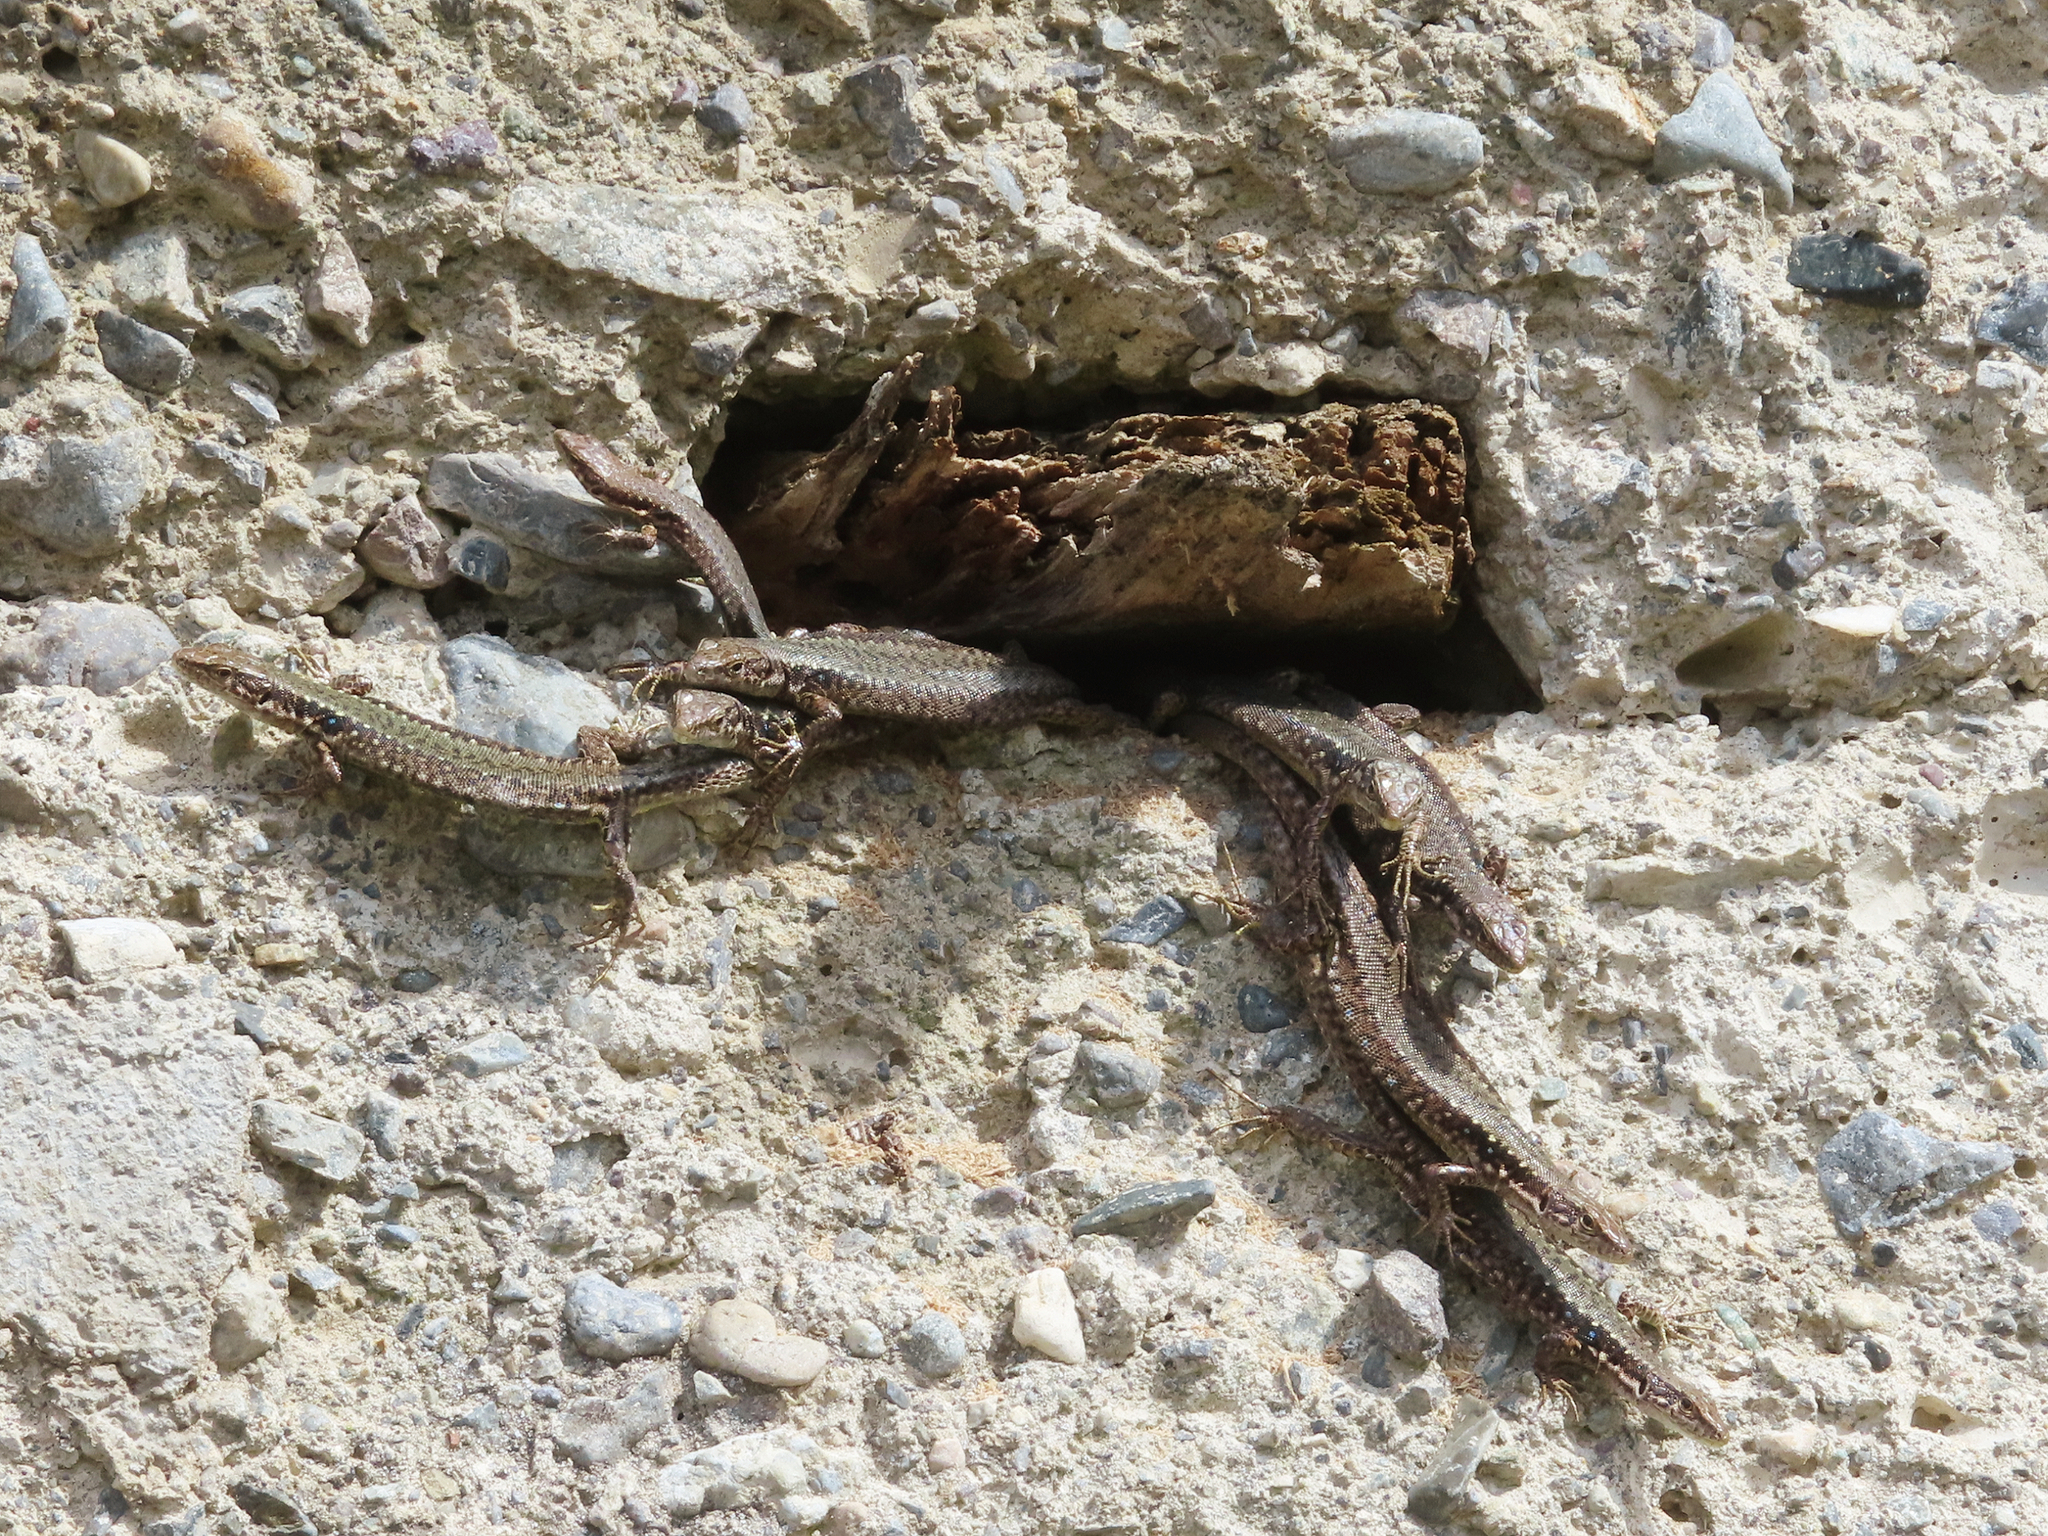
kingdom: Animalia
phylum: Chordata
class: Squamata
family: Lacertidae
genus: Darevskia
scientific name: Darevskia armeniaca
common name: Armenian lizard
